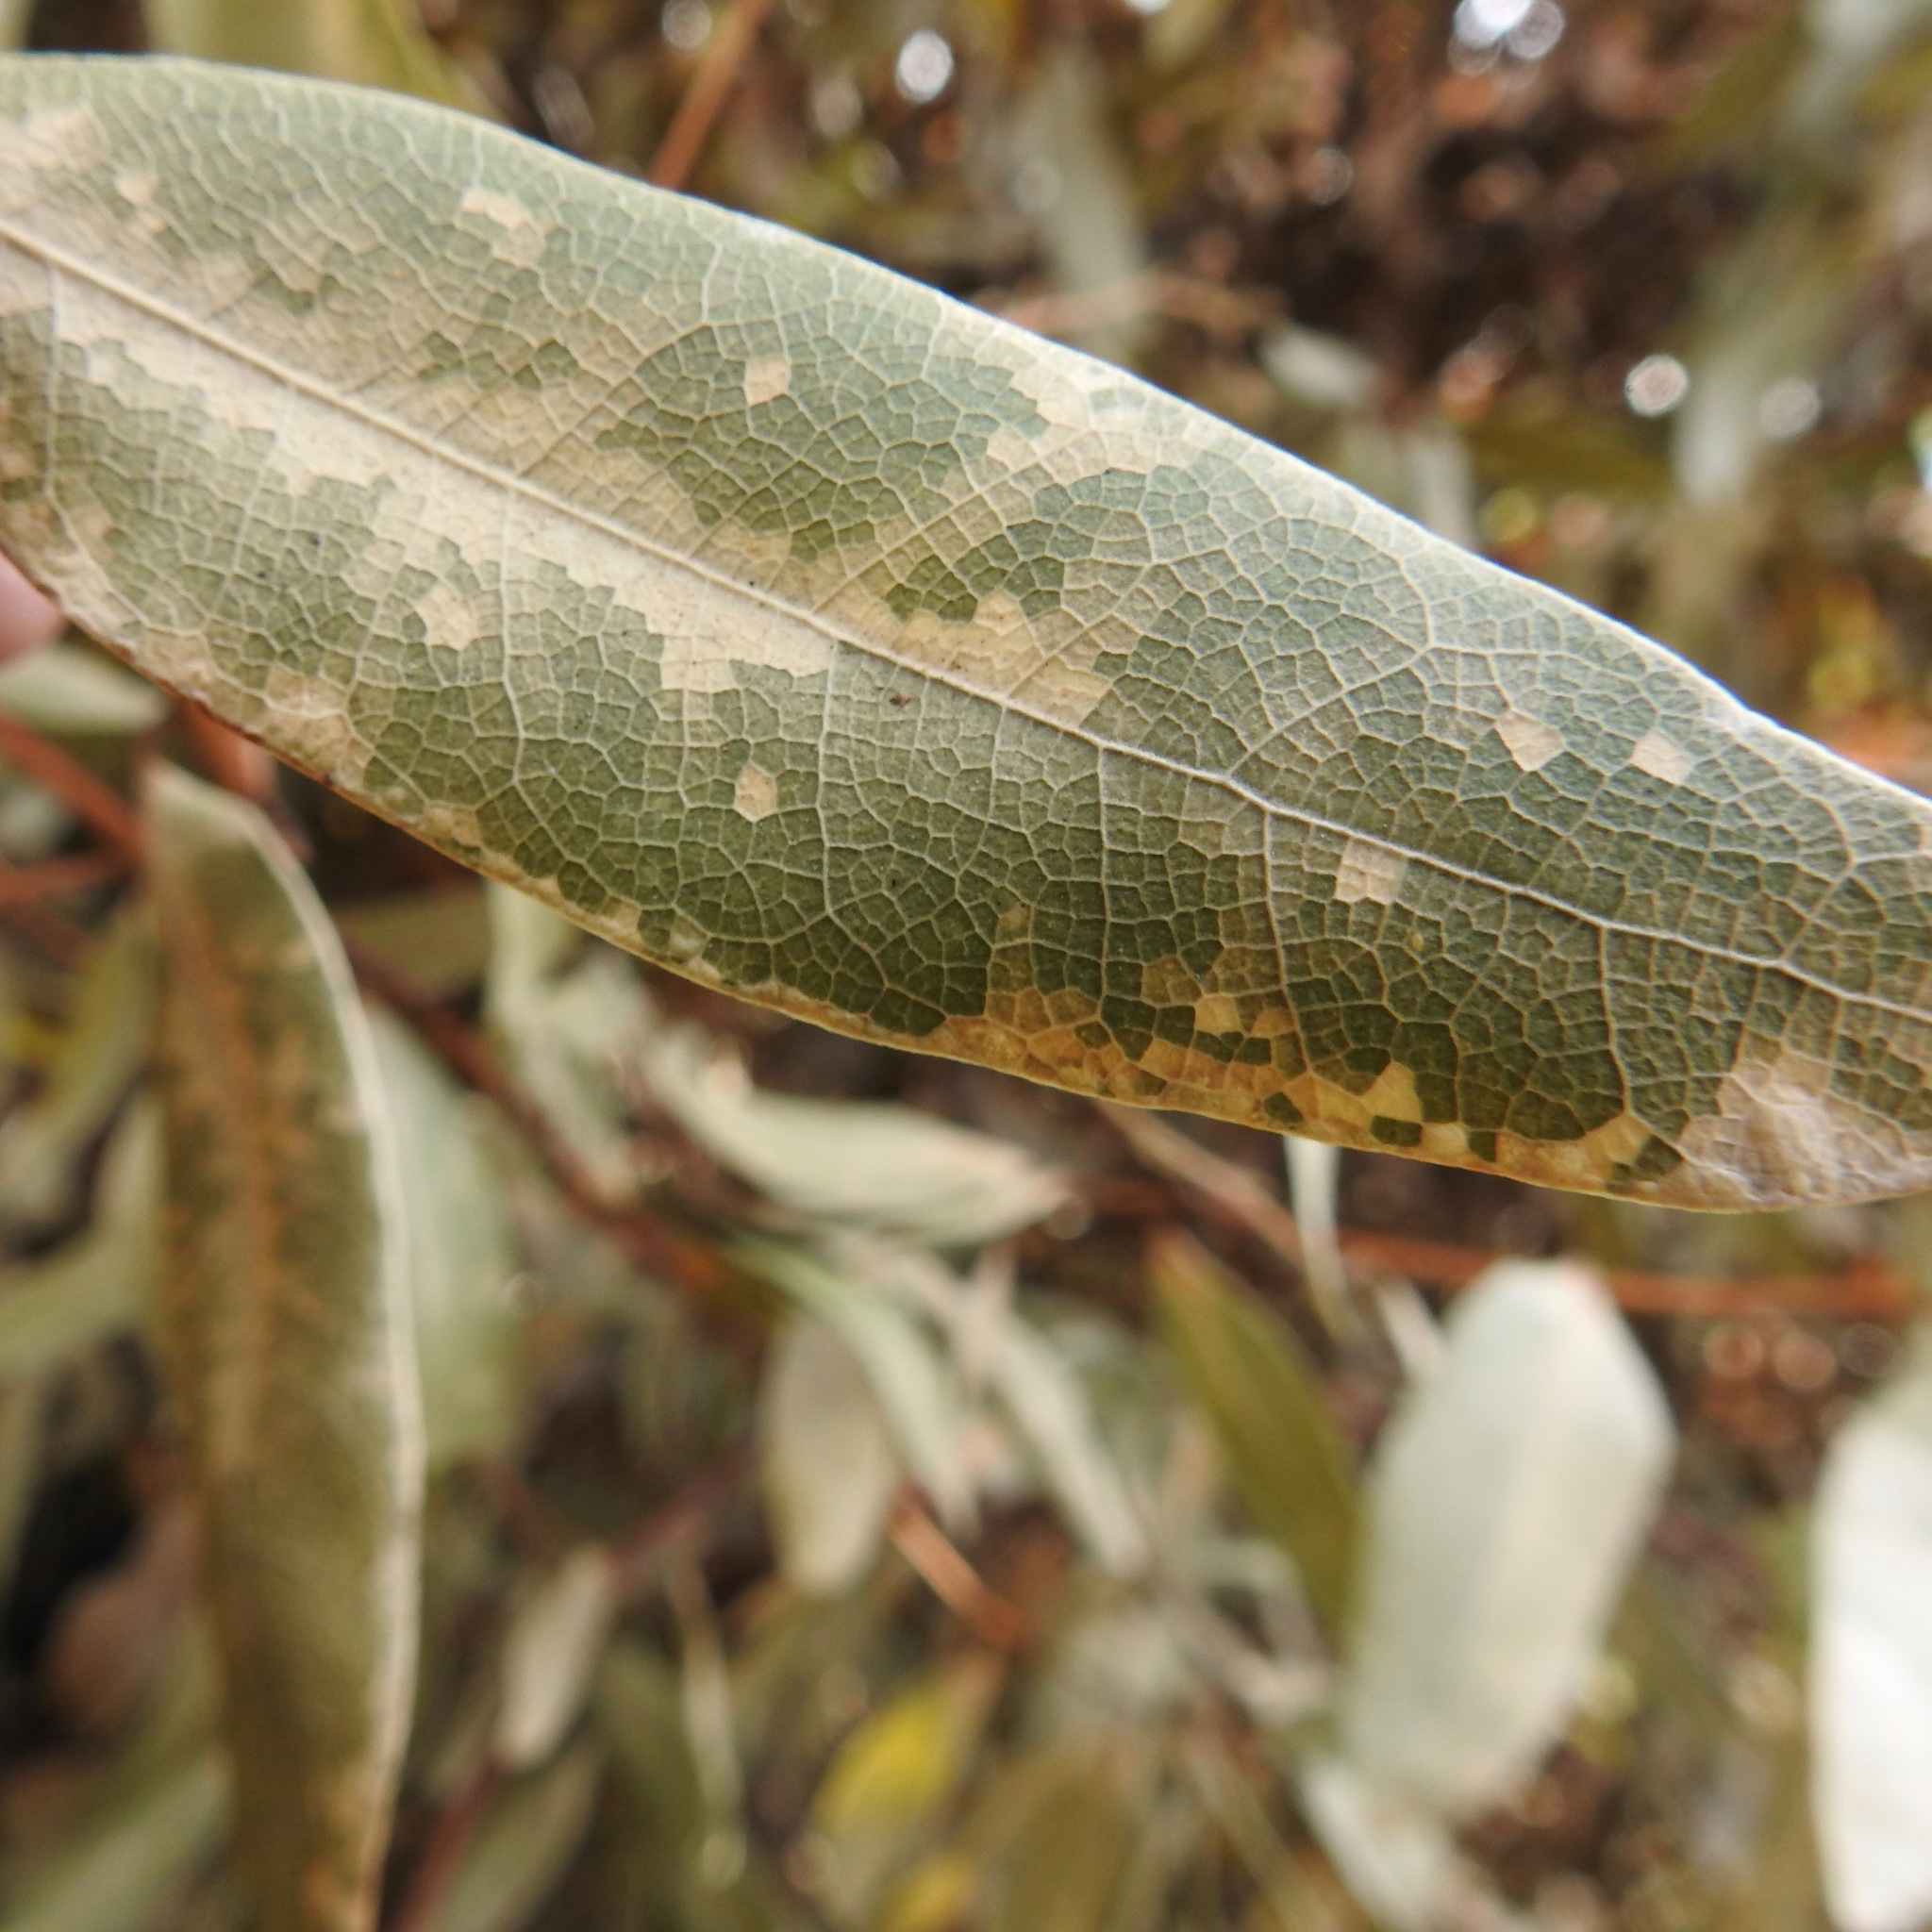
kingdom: Plantae
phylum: Tracheophyta
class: Magnoliopsida
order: Laurales
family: Lauraceae
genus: Umbellularia
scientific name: Umbellularia californica
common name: California bay
